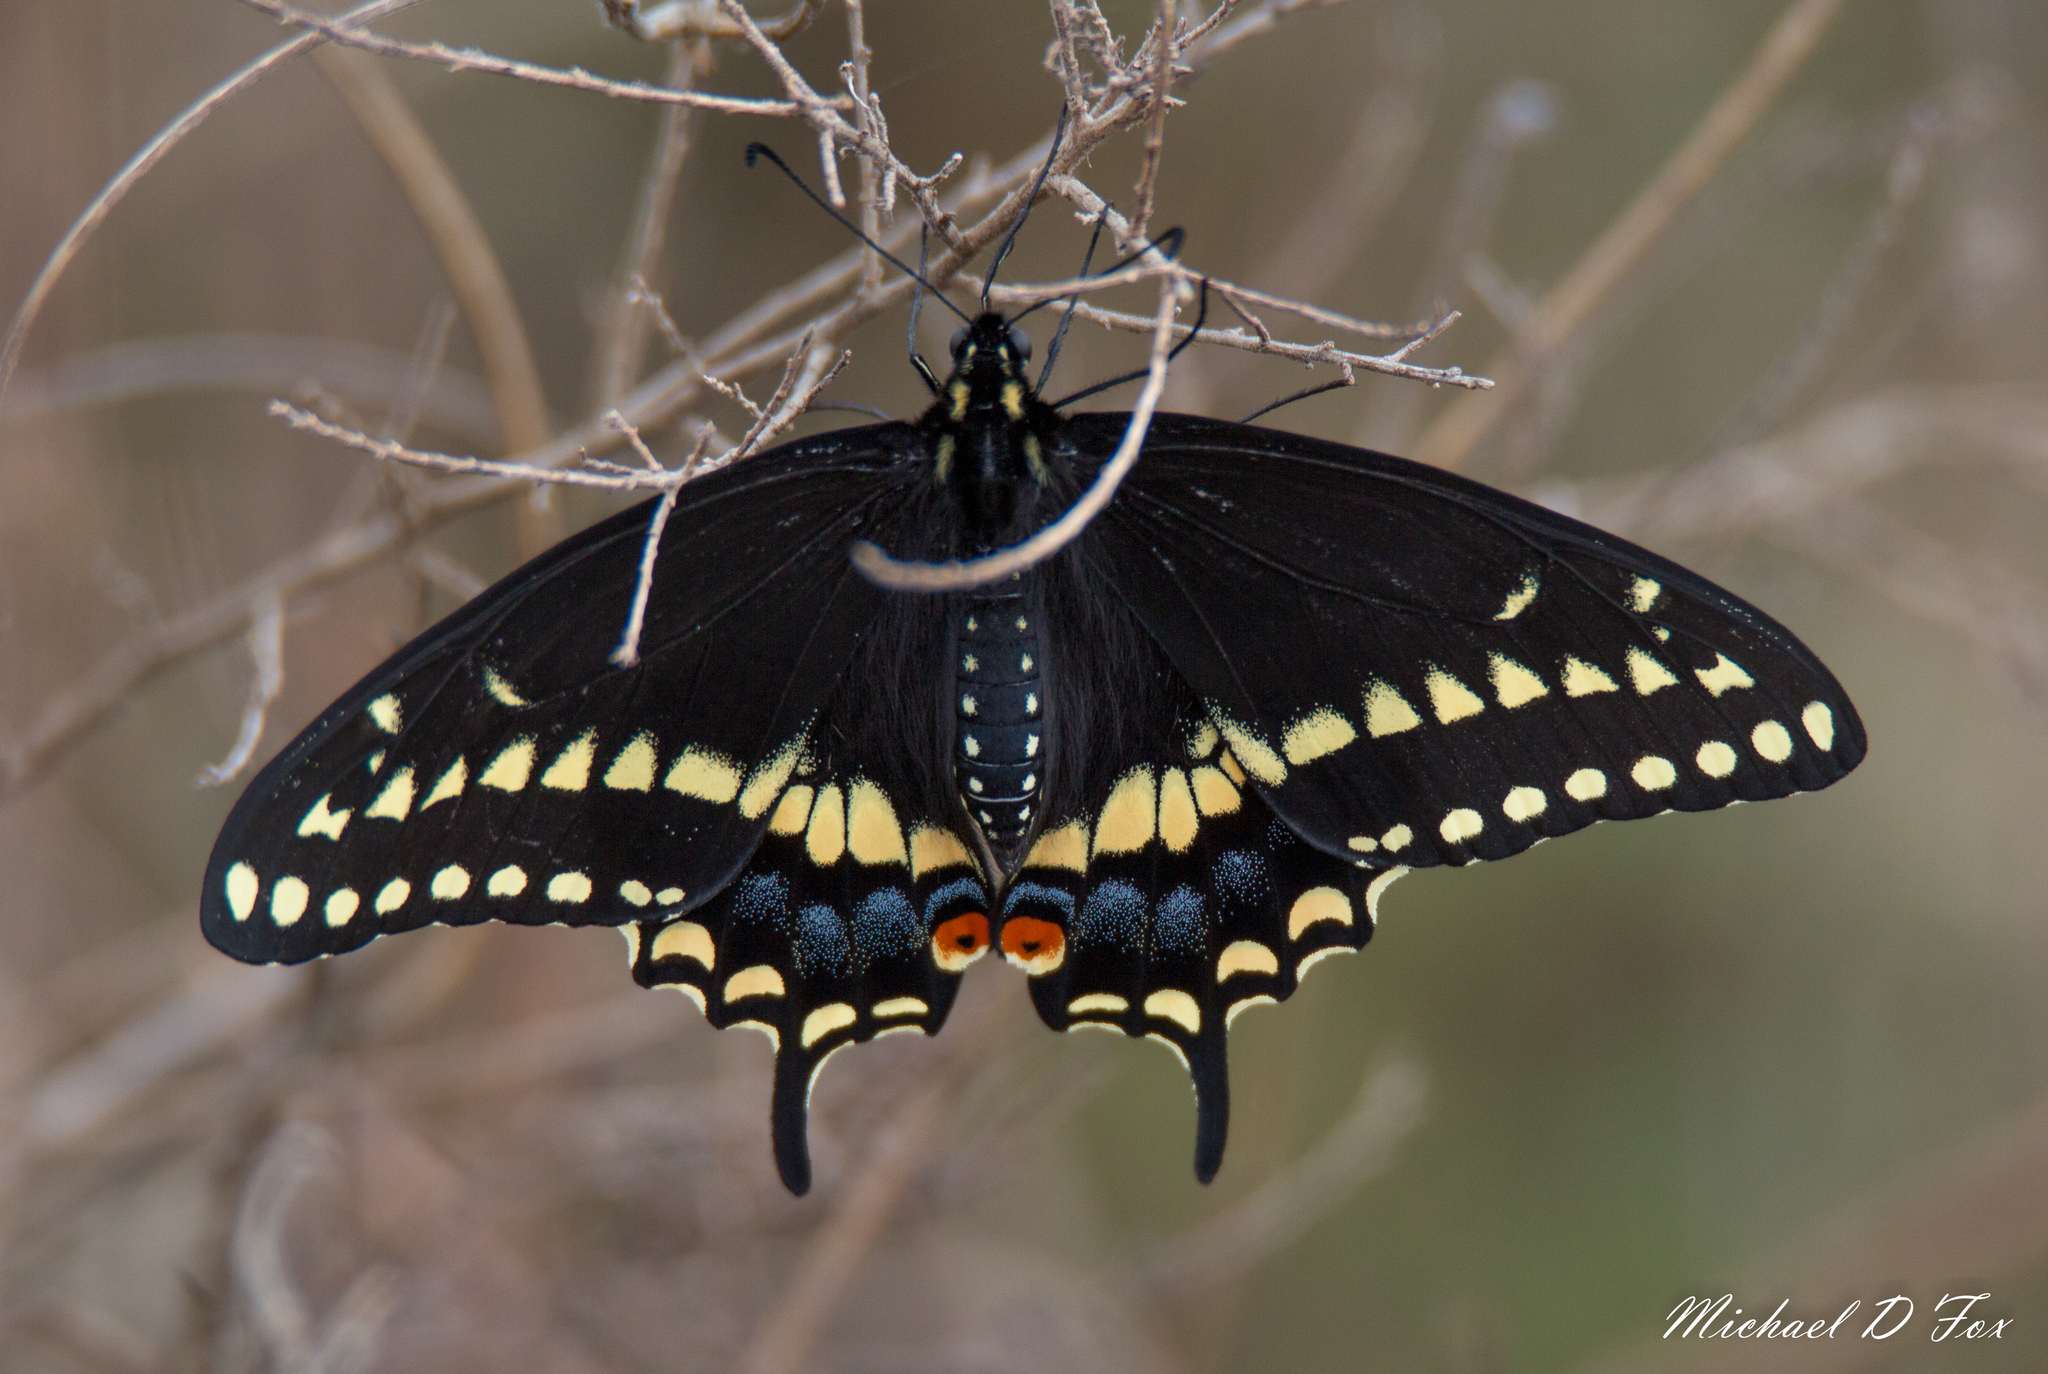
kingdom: Animalia
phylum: Arthropoda
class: Insecta
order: Lepidoptera
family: Papilionidae
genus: Papilio
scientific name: Papilio polyxenes
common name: Black swallowtail
